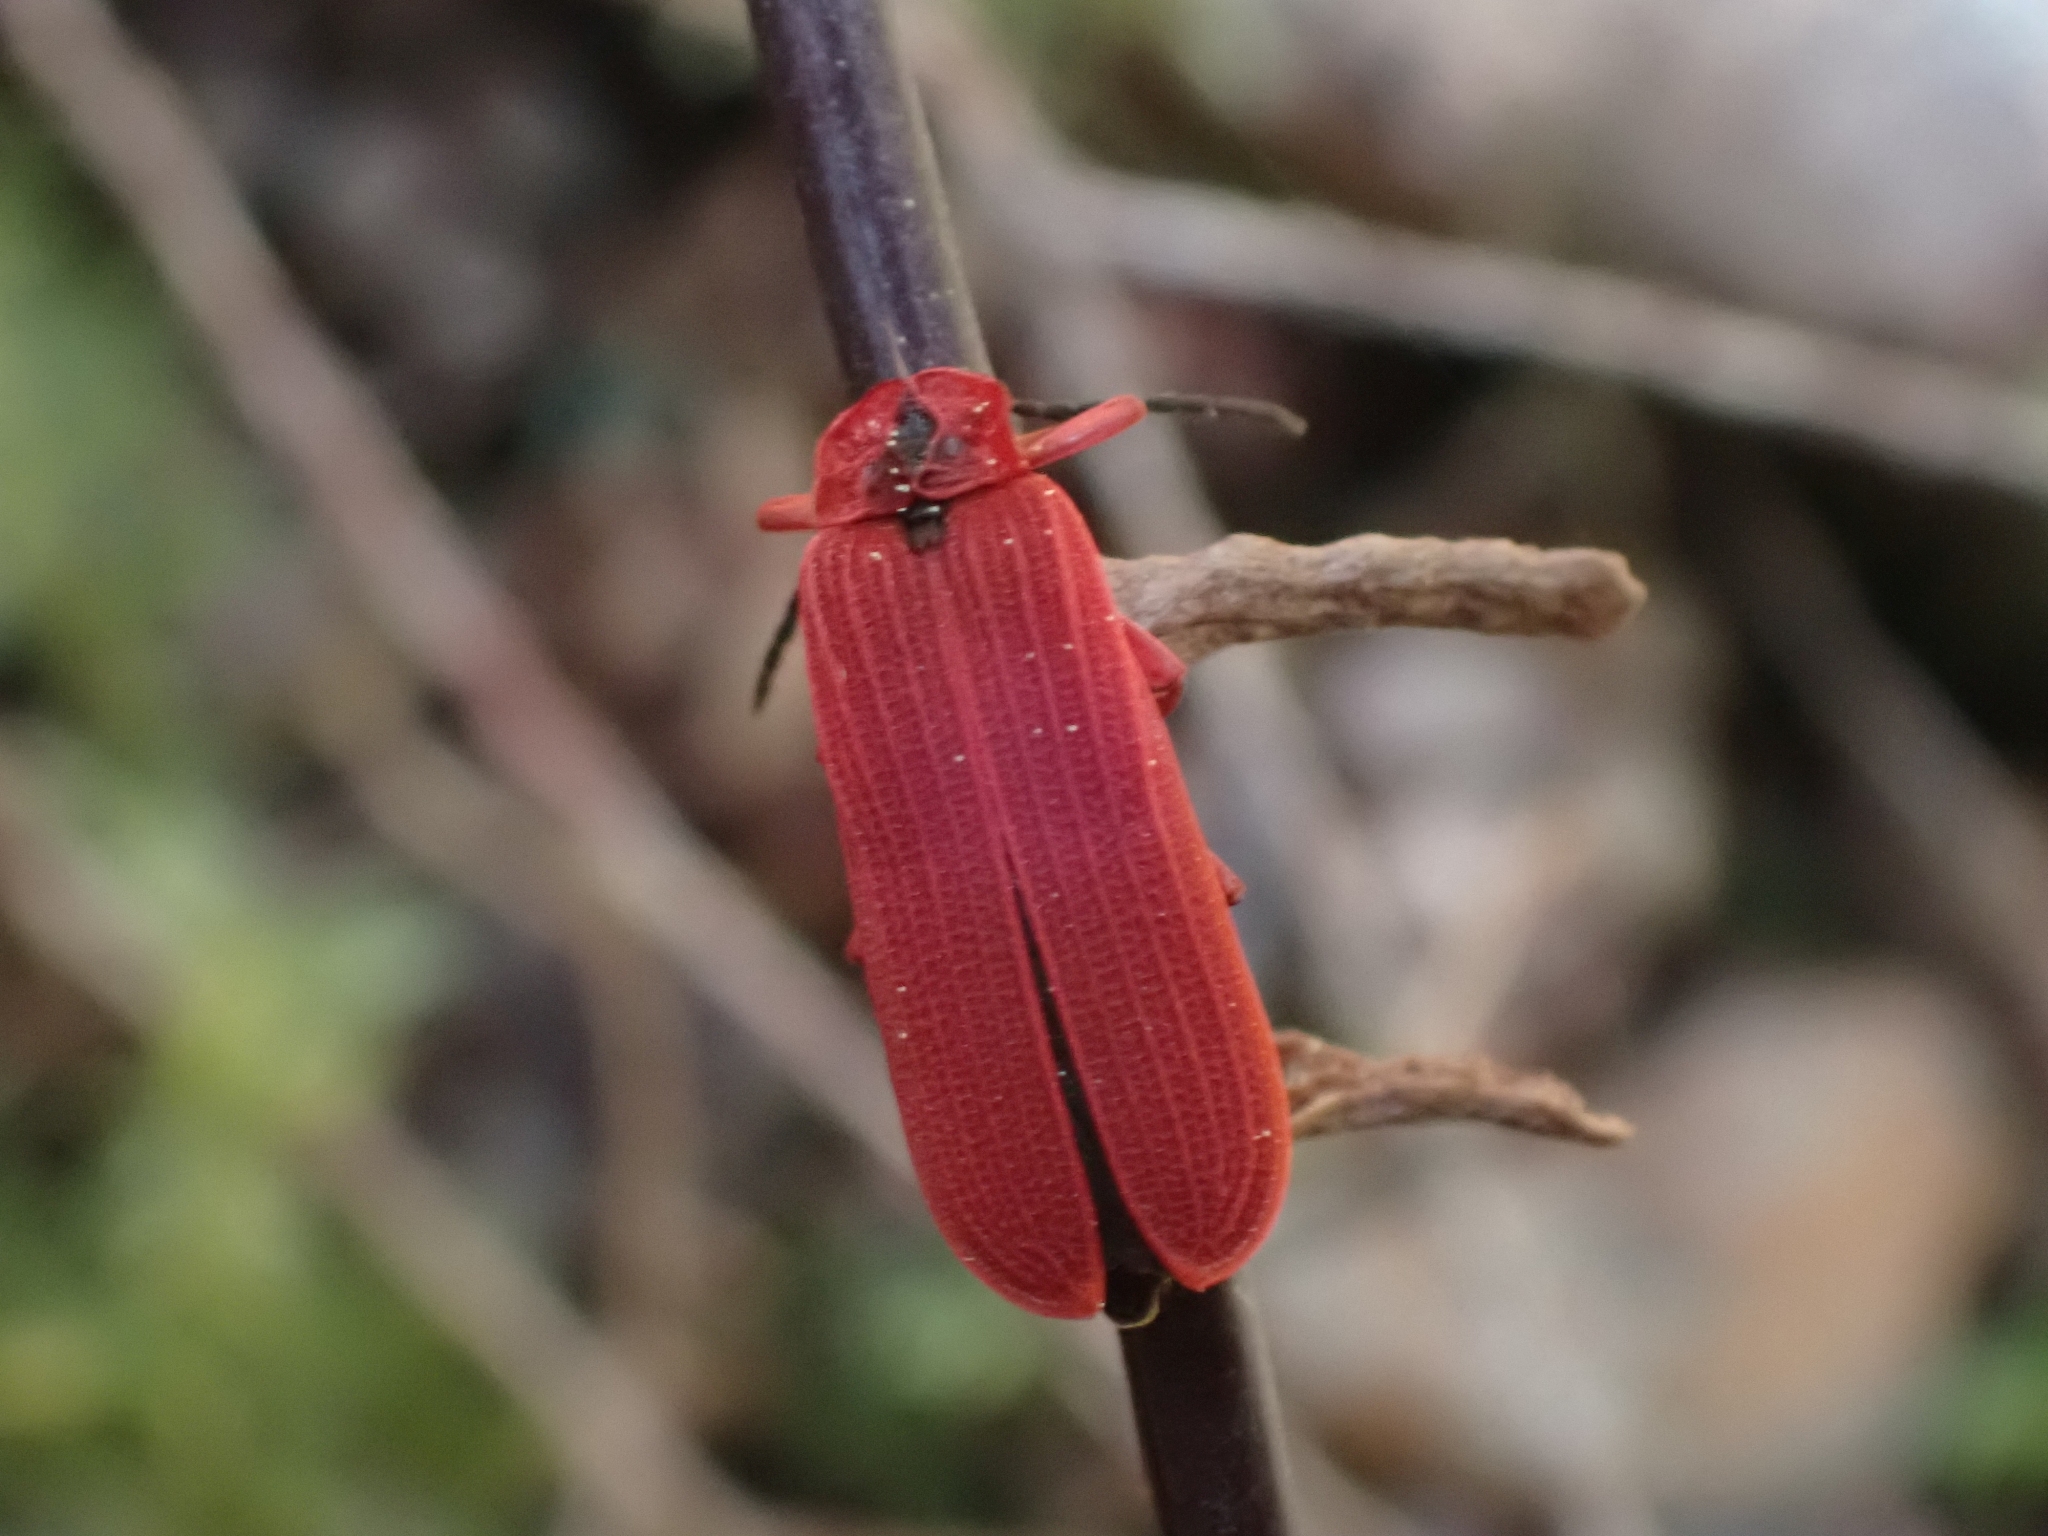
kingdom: Animalia
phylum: Arthropoda
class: Insecta
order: Coleoptera
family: Lycidae
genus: Dictyoptera
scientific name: Dictyoptera simplicipes
